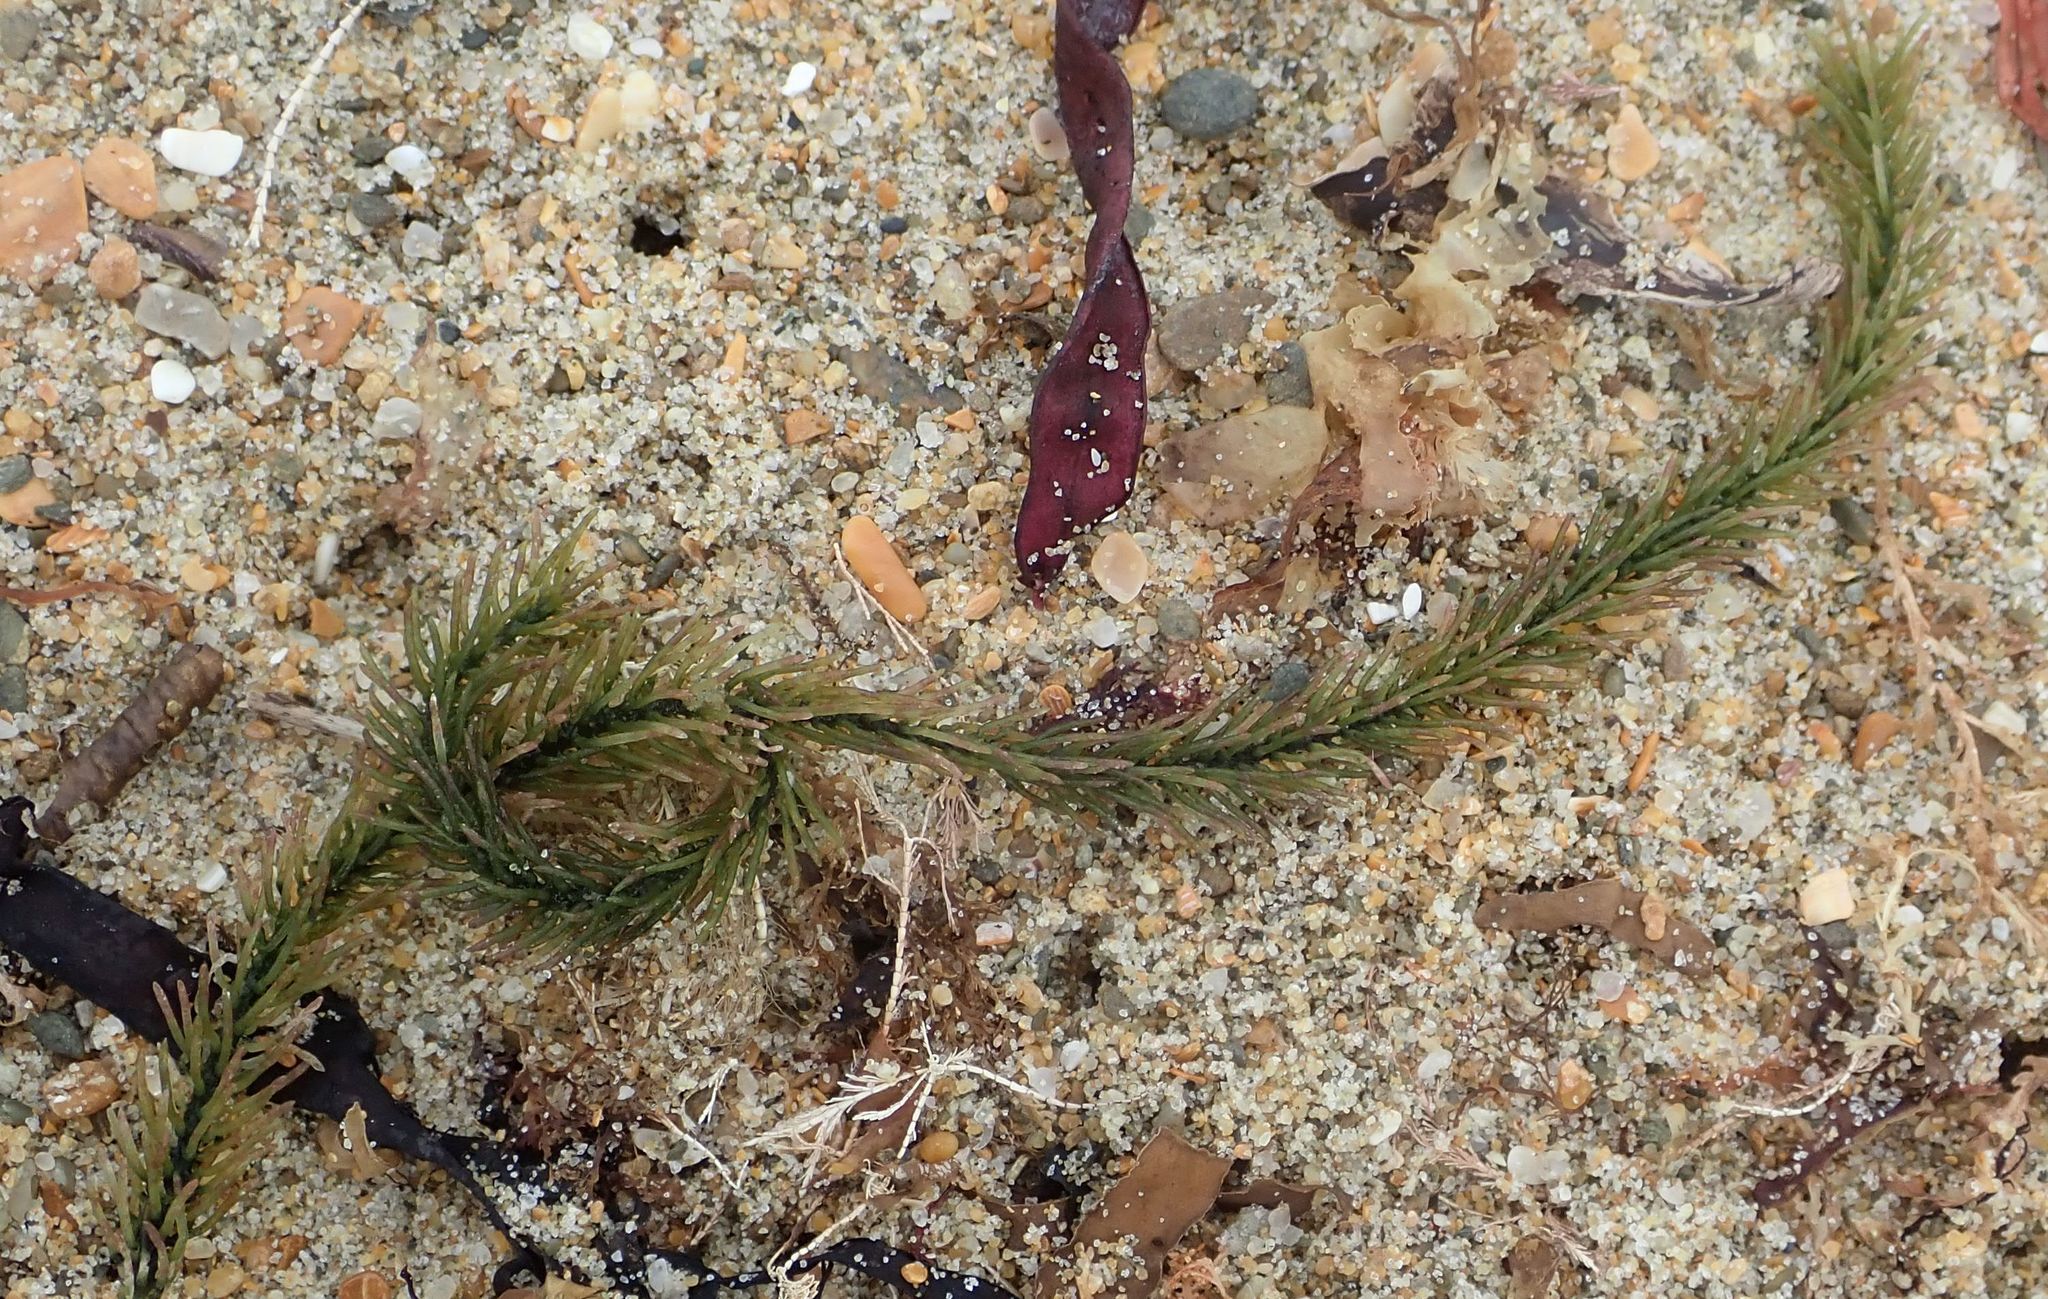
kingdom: Plantae
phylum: Chlorophyta
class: Ulvophyceae
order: Bryopsidales
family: Caulerpaceae
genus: Caulerpa
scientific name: Caulerpa brownii
